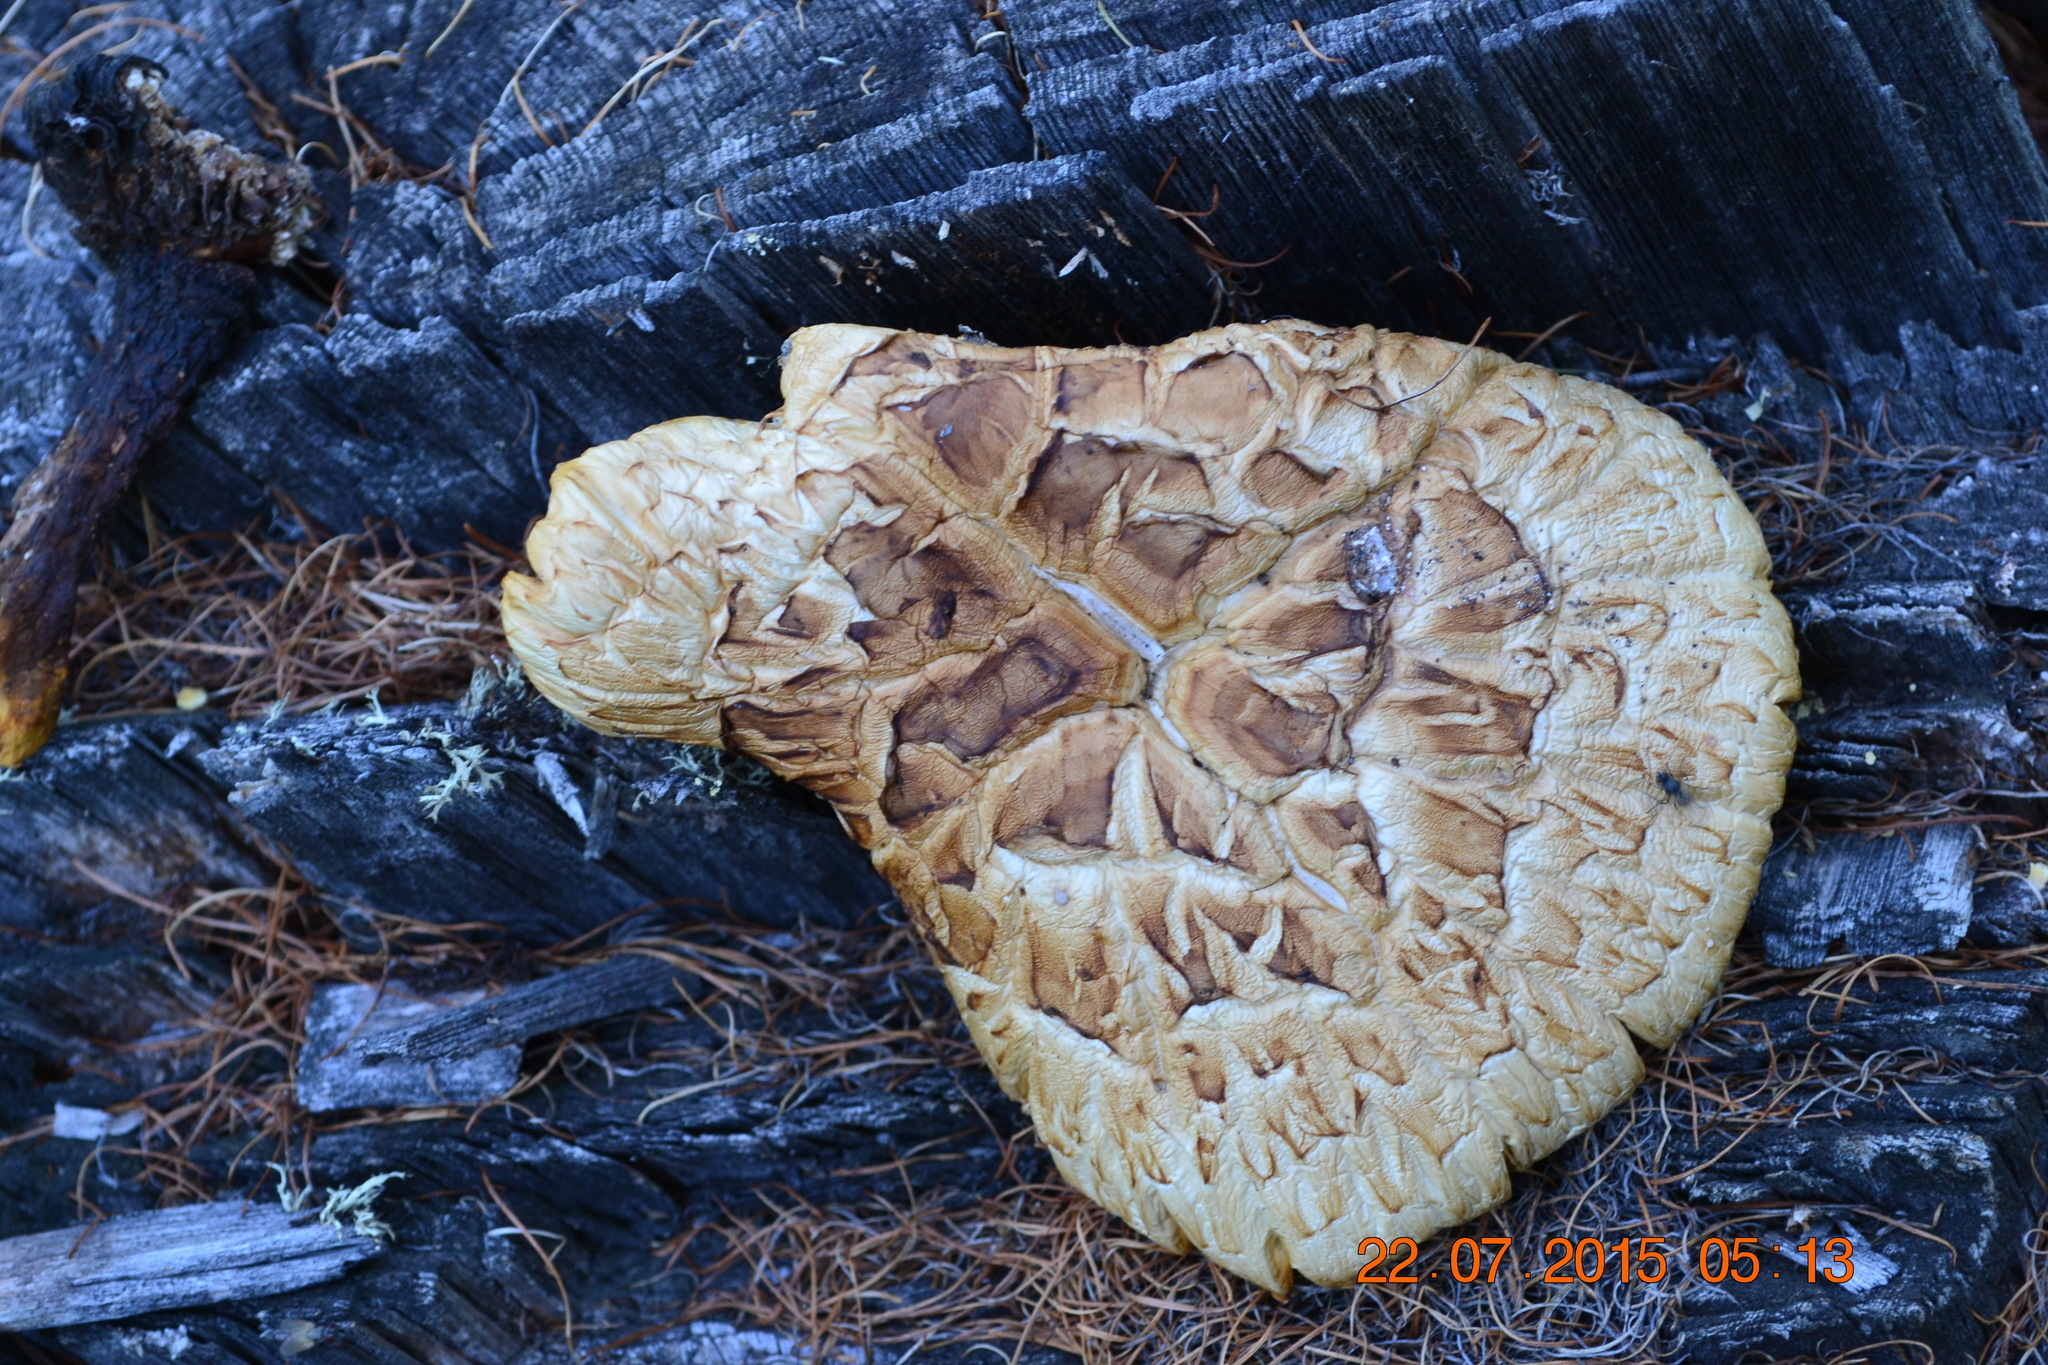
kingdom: Fungi
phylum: Basidiomycota
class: Agaricomycetes
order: Gloeophyllales
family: Gloeophyllaceae
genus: Neolentinus
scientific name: Neolentinus lepideus
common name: Scaly sawgill
